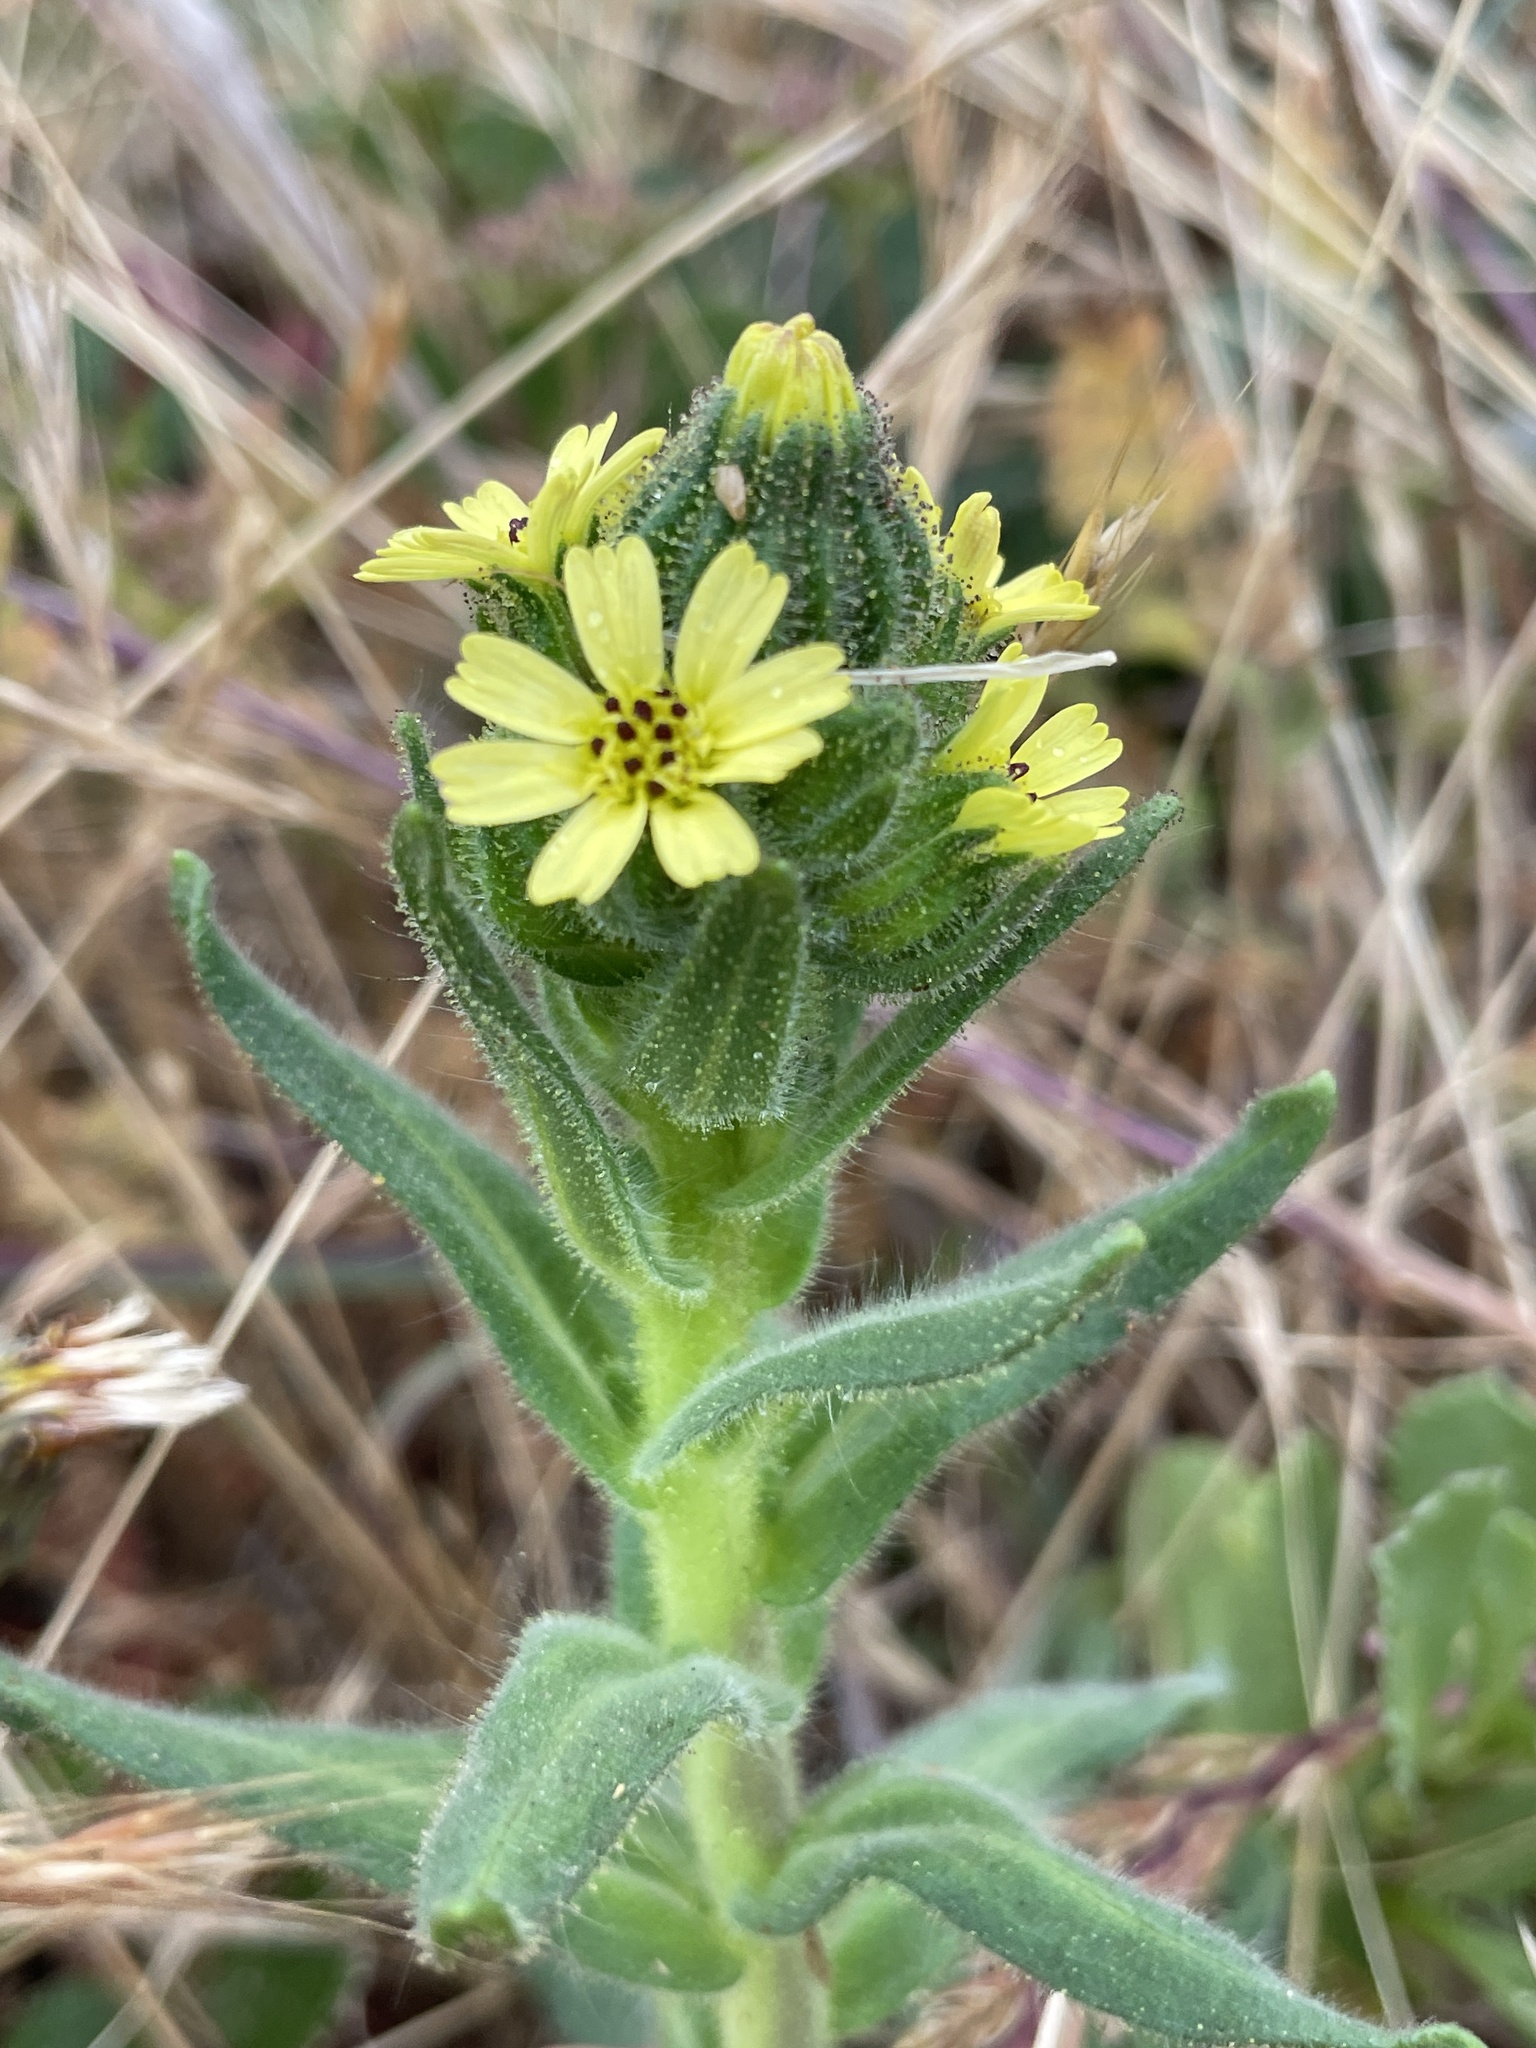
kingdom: Plantae
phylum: Tracheophyta
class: Magnoliopsida
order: Asterales
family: Asteraceae
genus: Madia
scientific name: Madia sativa
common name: Coast tarweed
